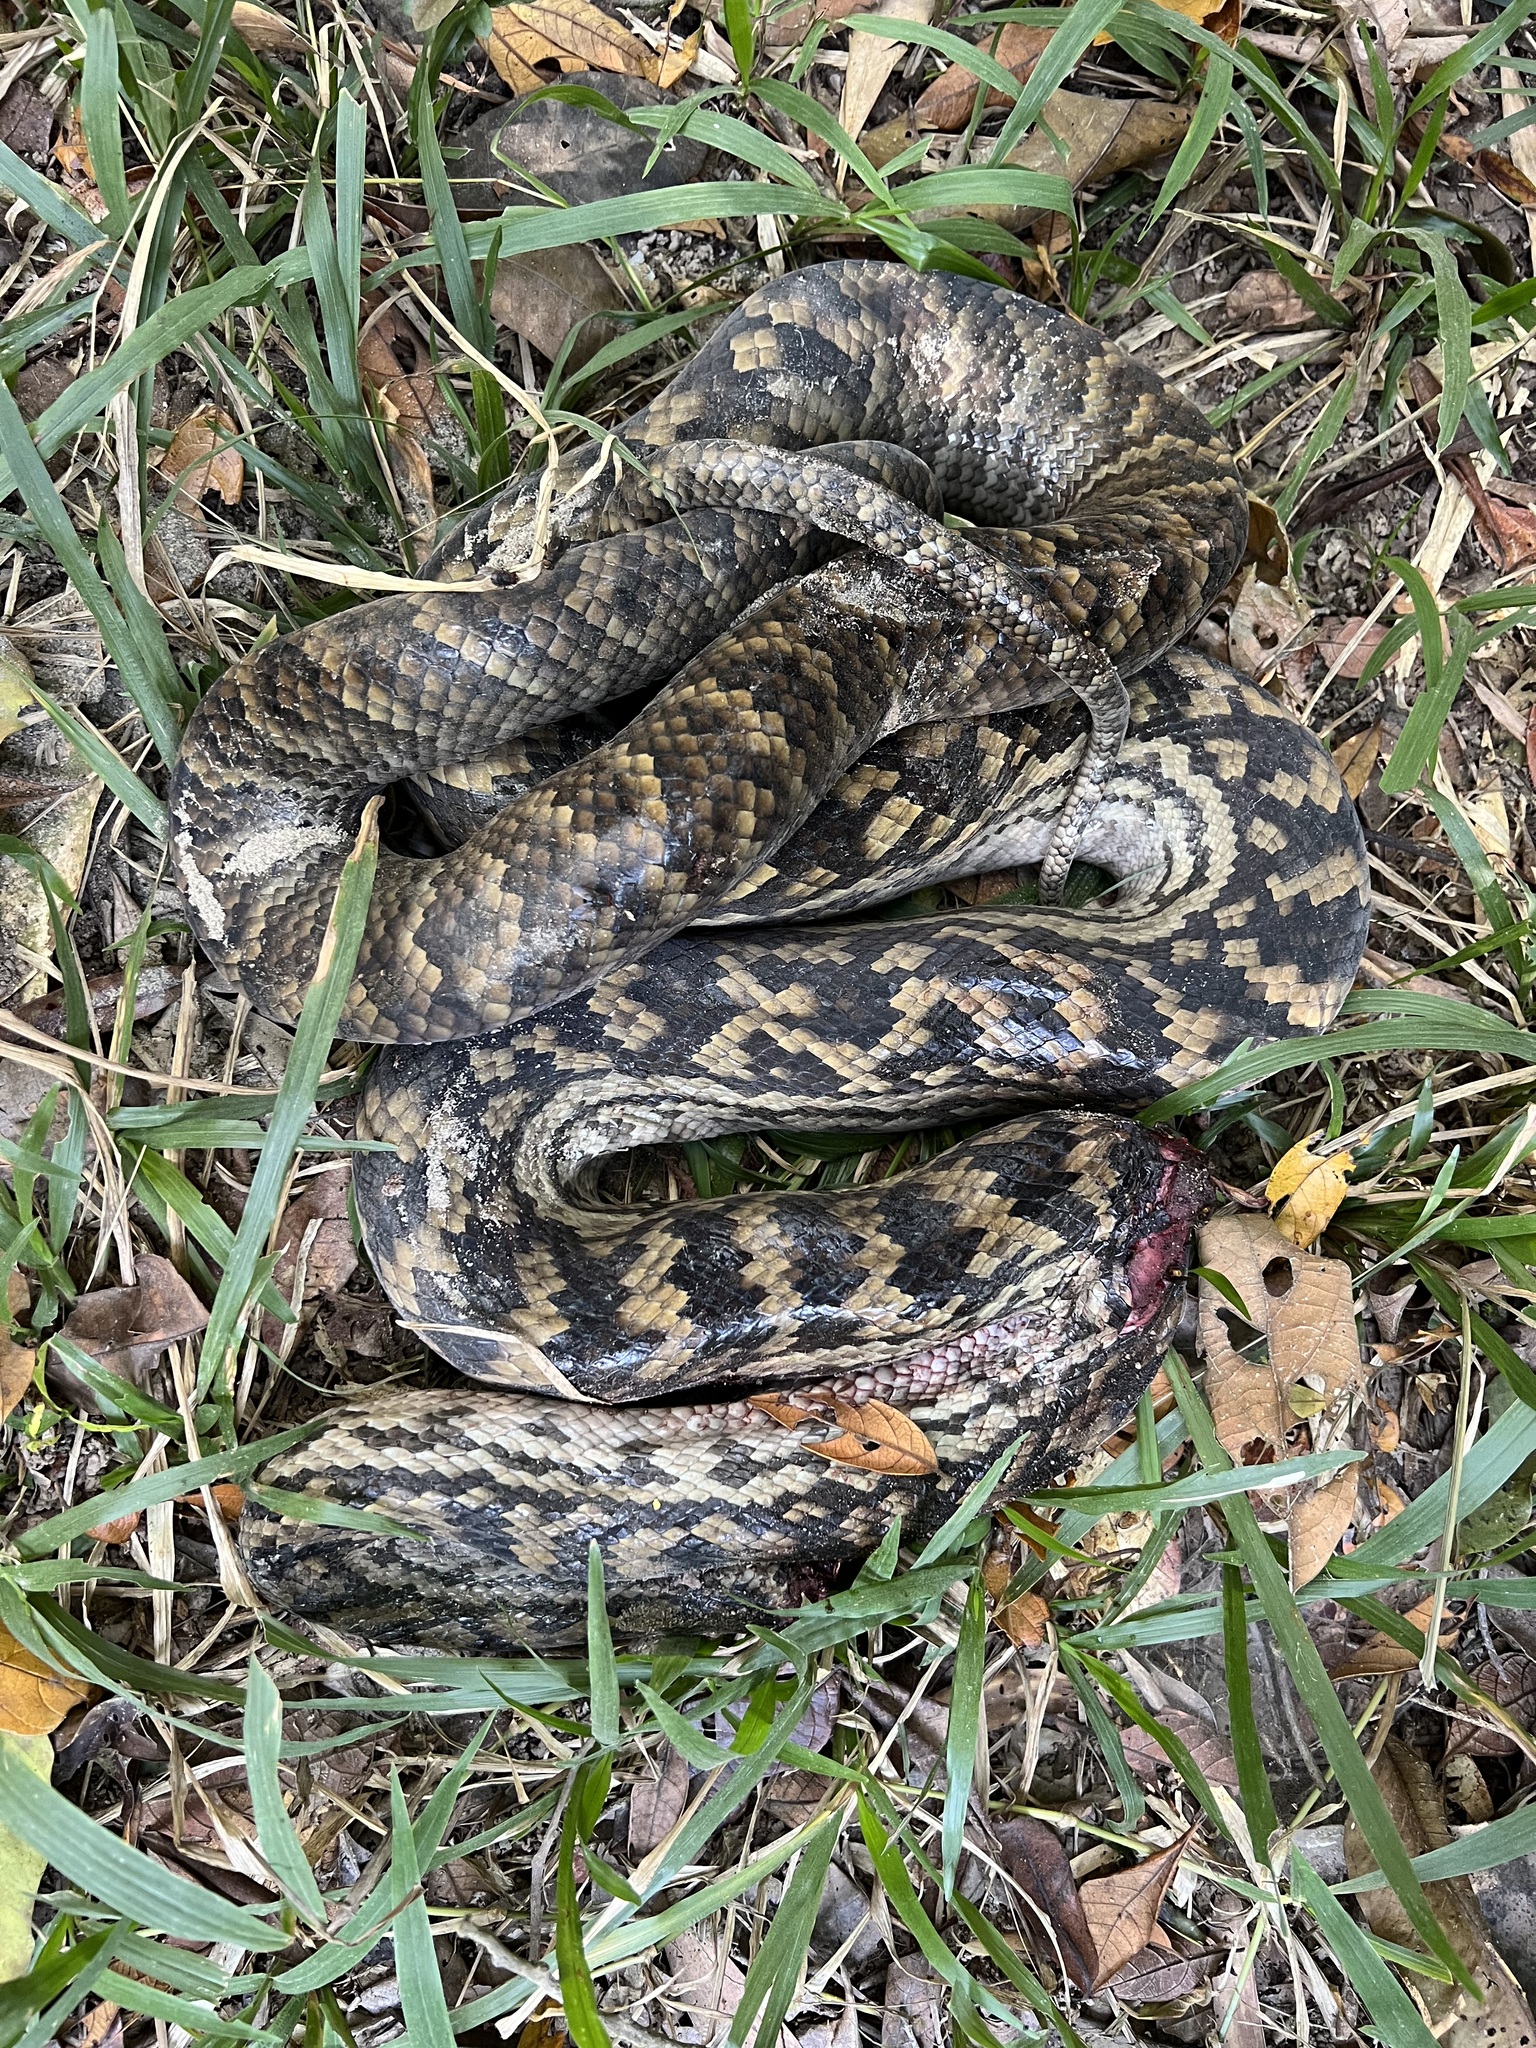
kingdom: Animalia
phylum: Chordata
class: Squamata
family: Pythonidae
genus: Simalia
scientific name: Simalia kinghorni
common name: Scrub python
